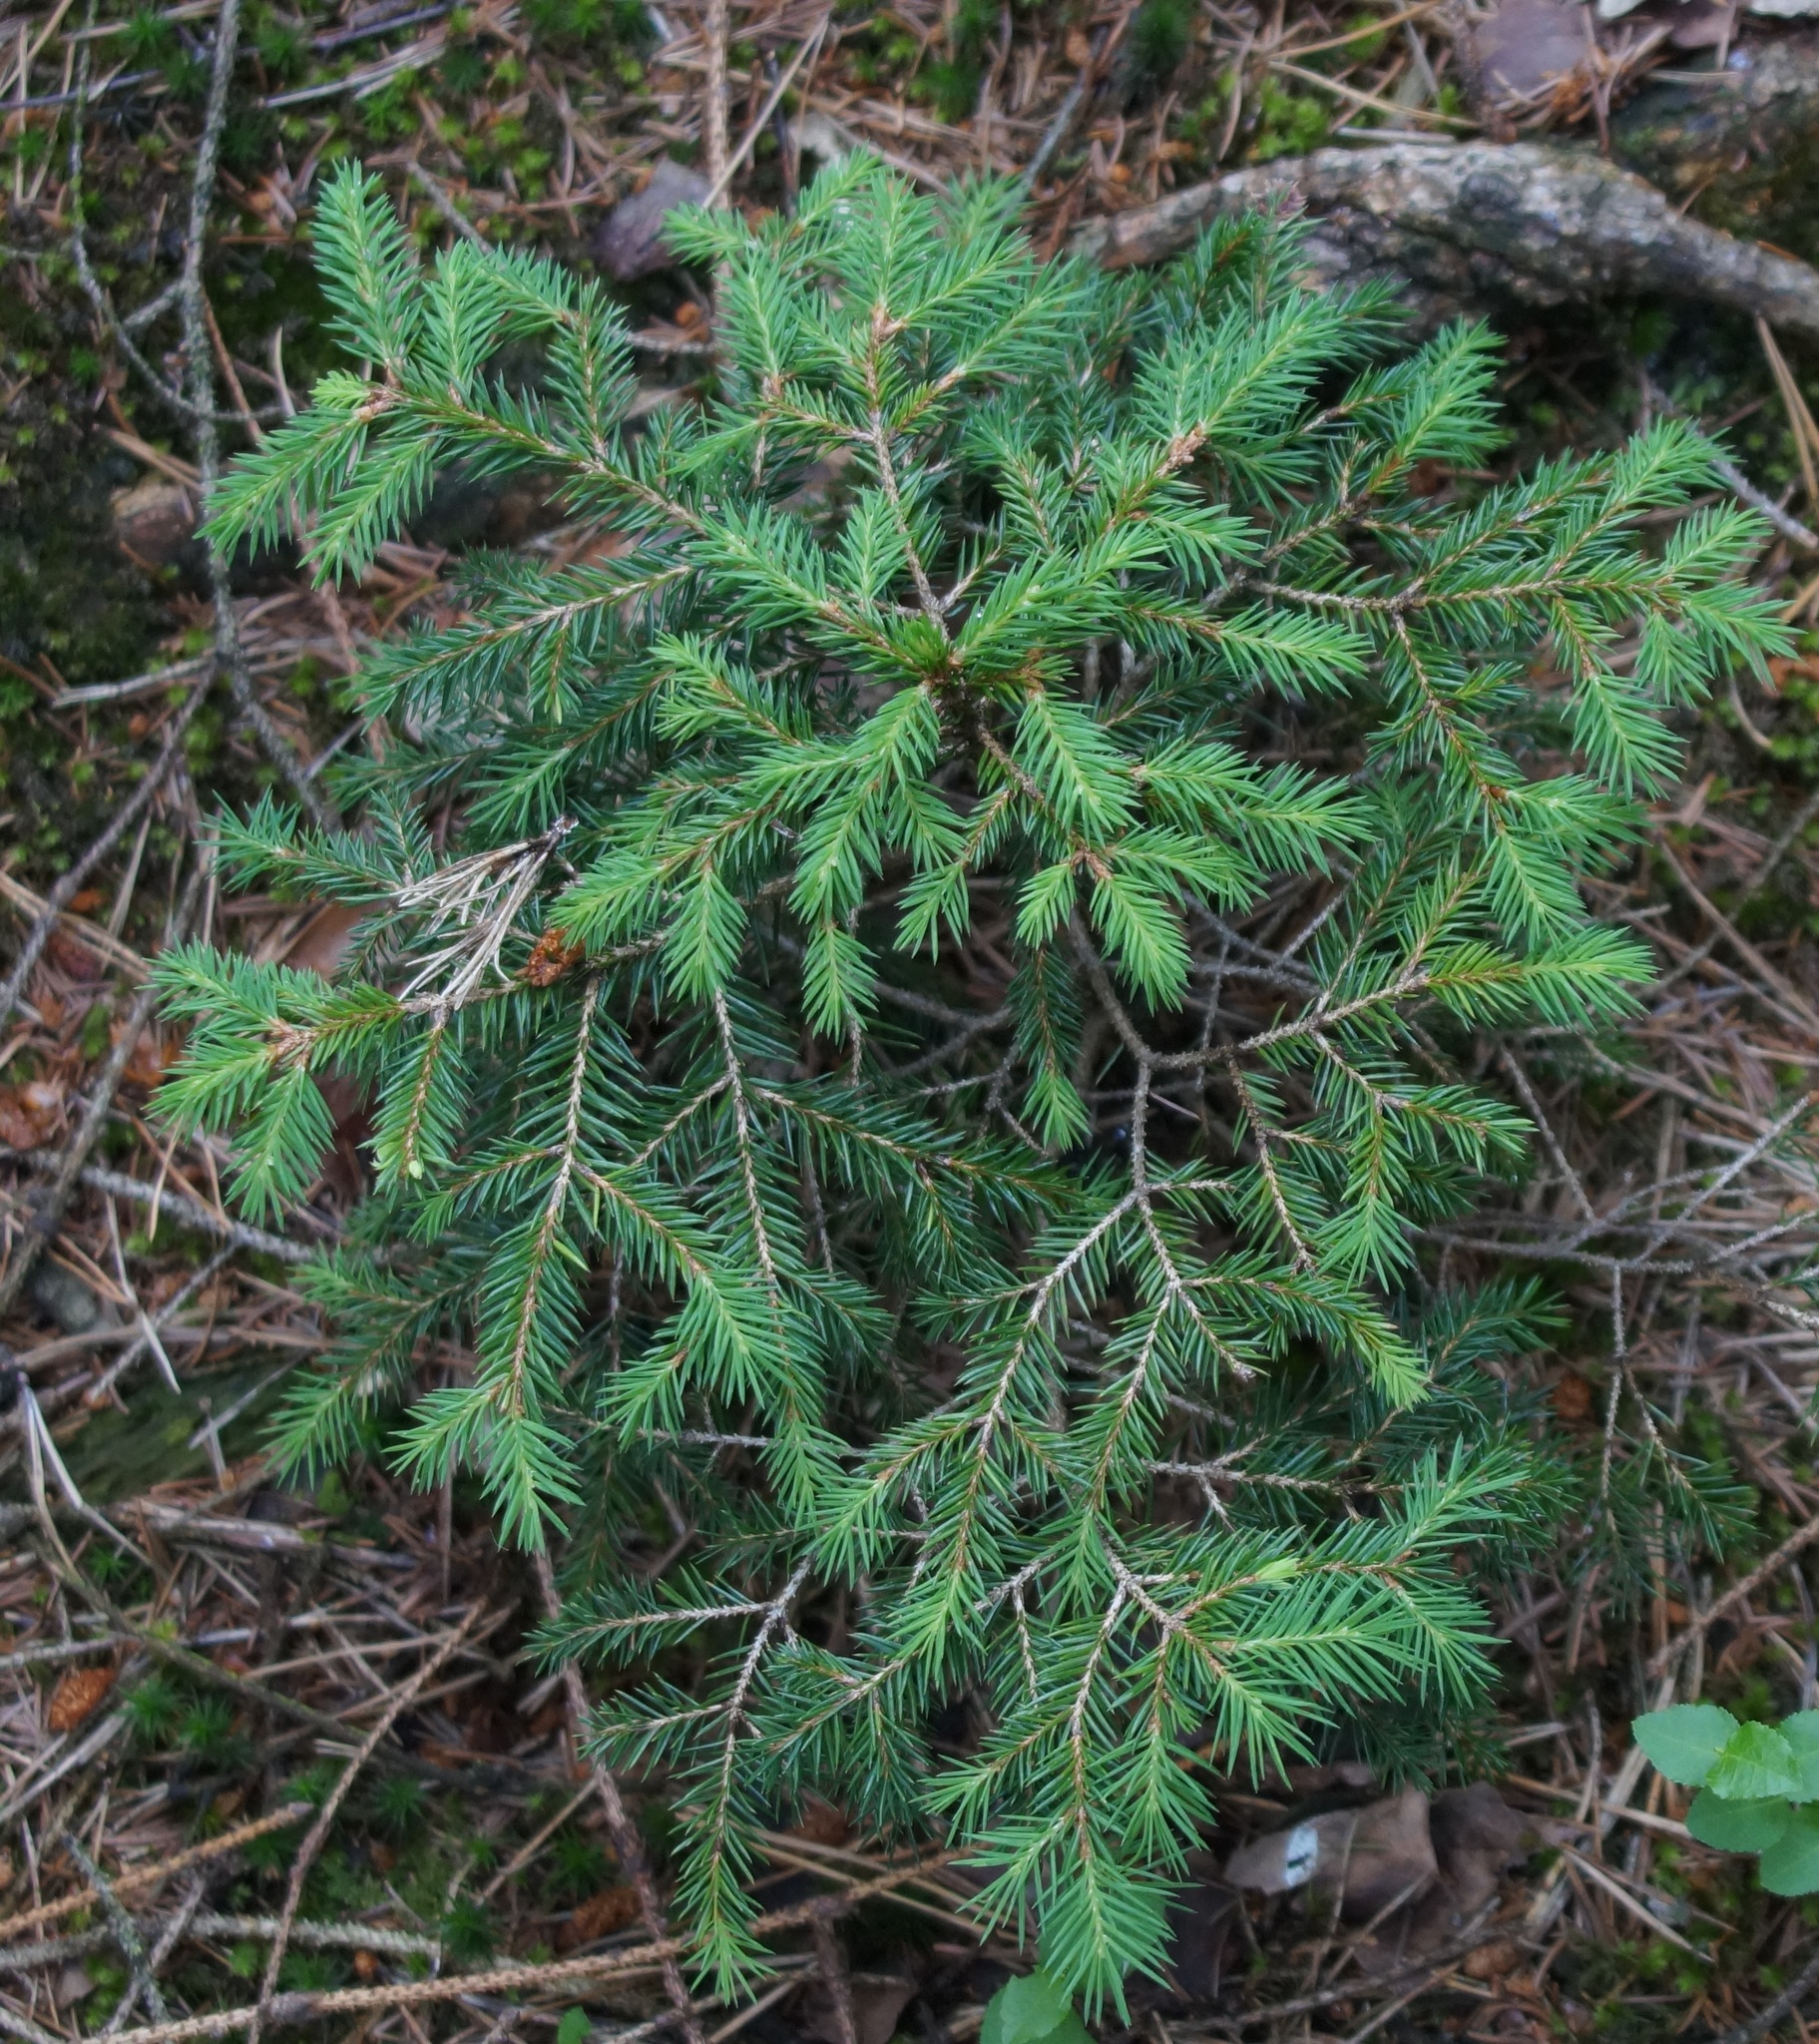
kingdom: Plantae
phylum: Tracheophyta
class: Pinopsida
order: Pinales
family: Pinaceae
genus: Picea
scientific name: Picea abies
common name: Norway spruce
